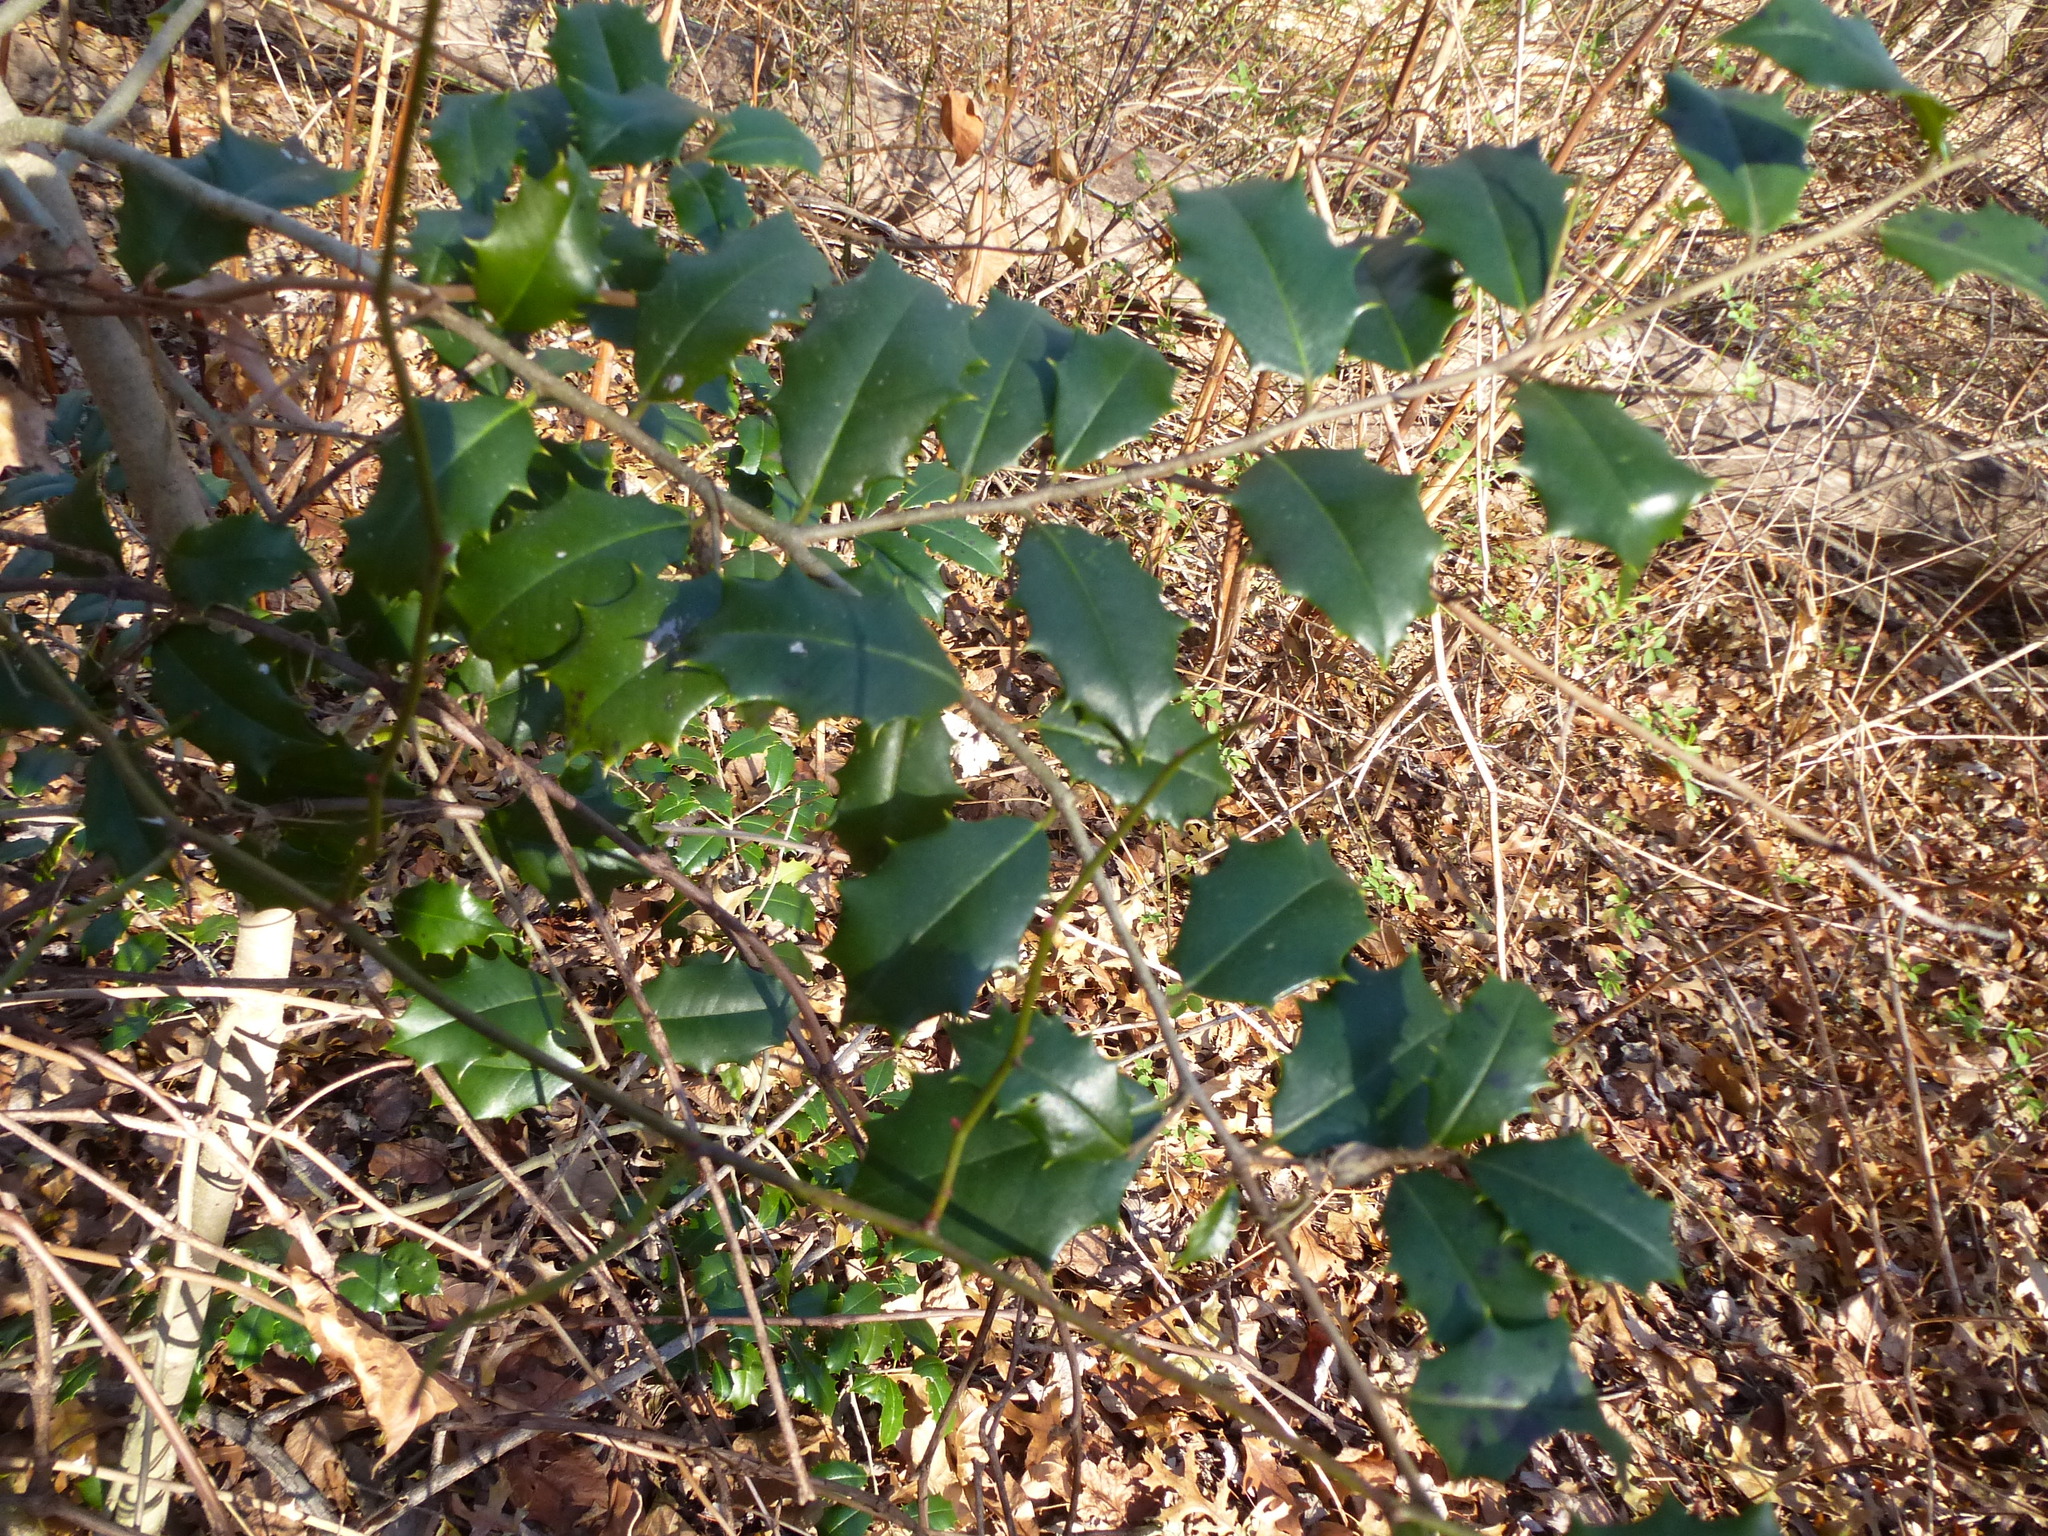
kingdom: Plantae
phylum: Tracheophyta
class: Magnoliopsida
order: Aquifoliales
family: Aquifoliaceae
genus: Ilex
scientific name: Ilex opaca
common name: American holly
